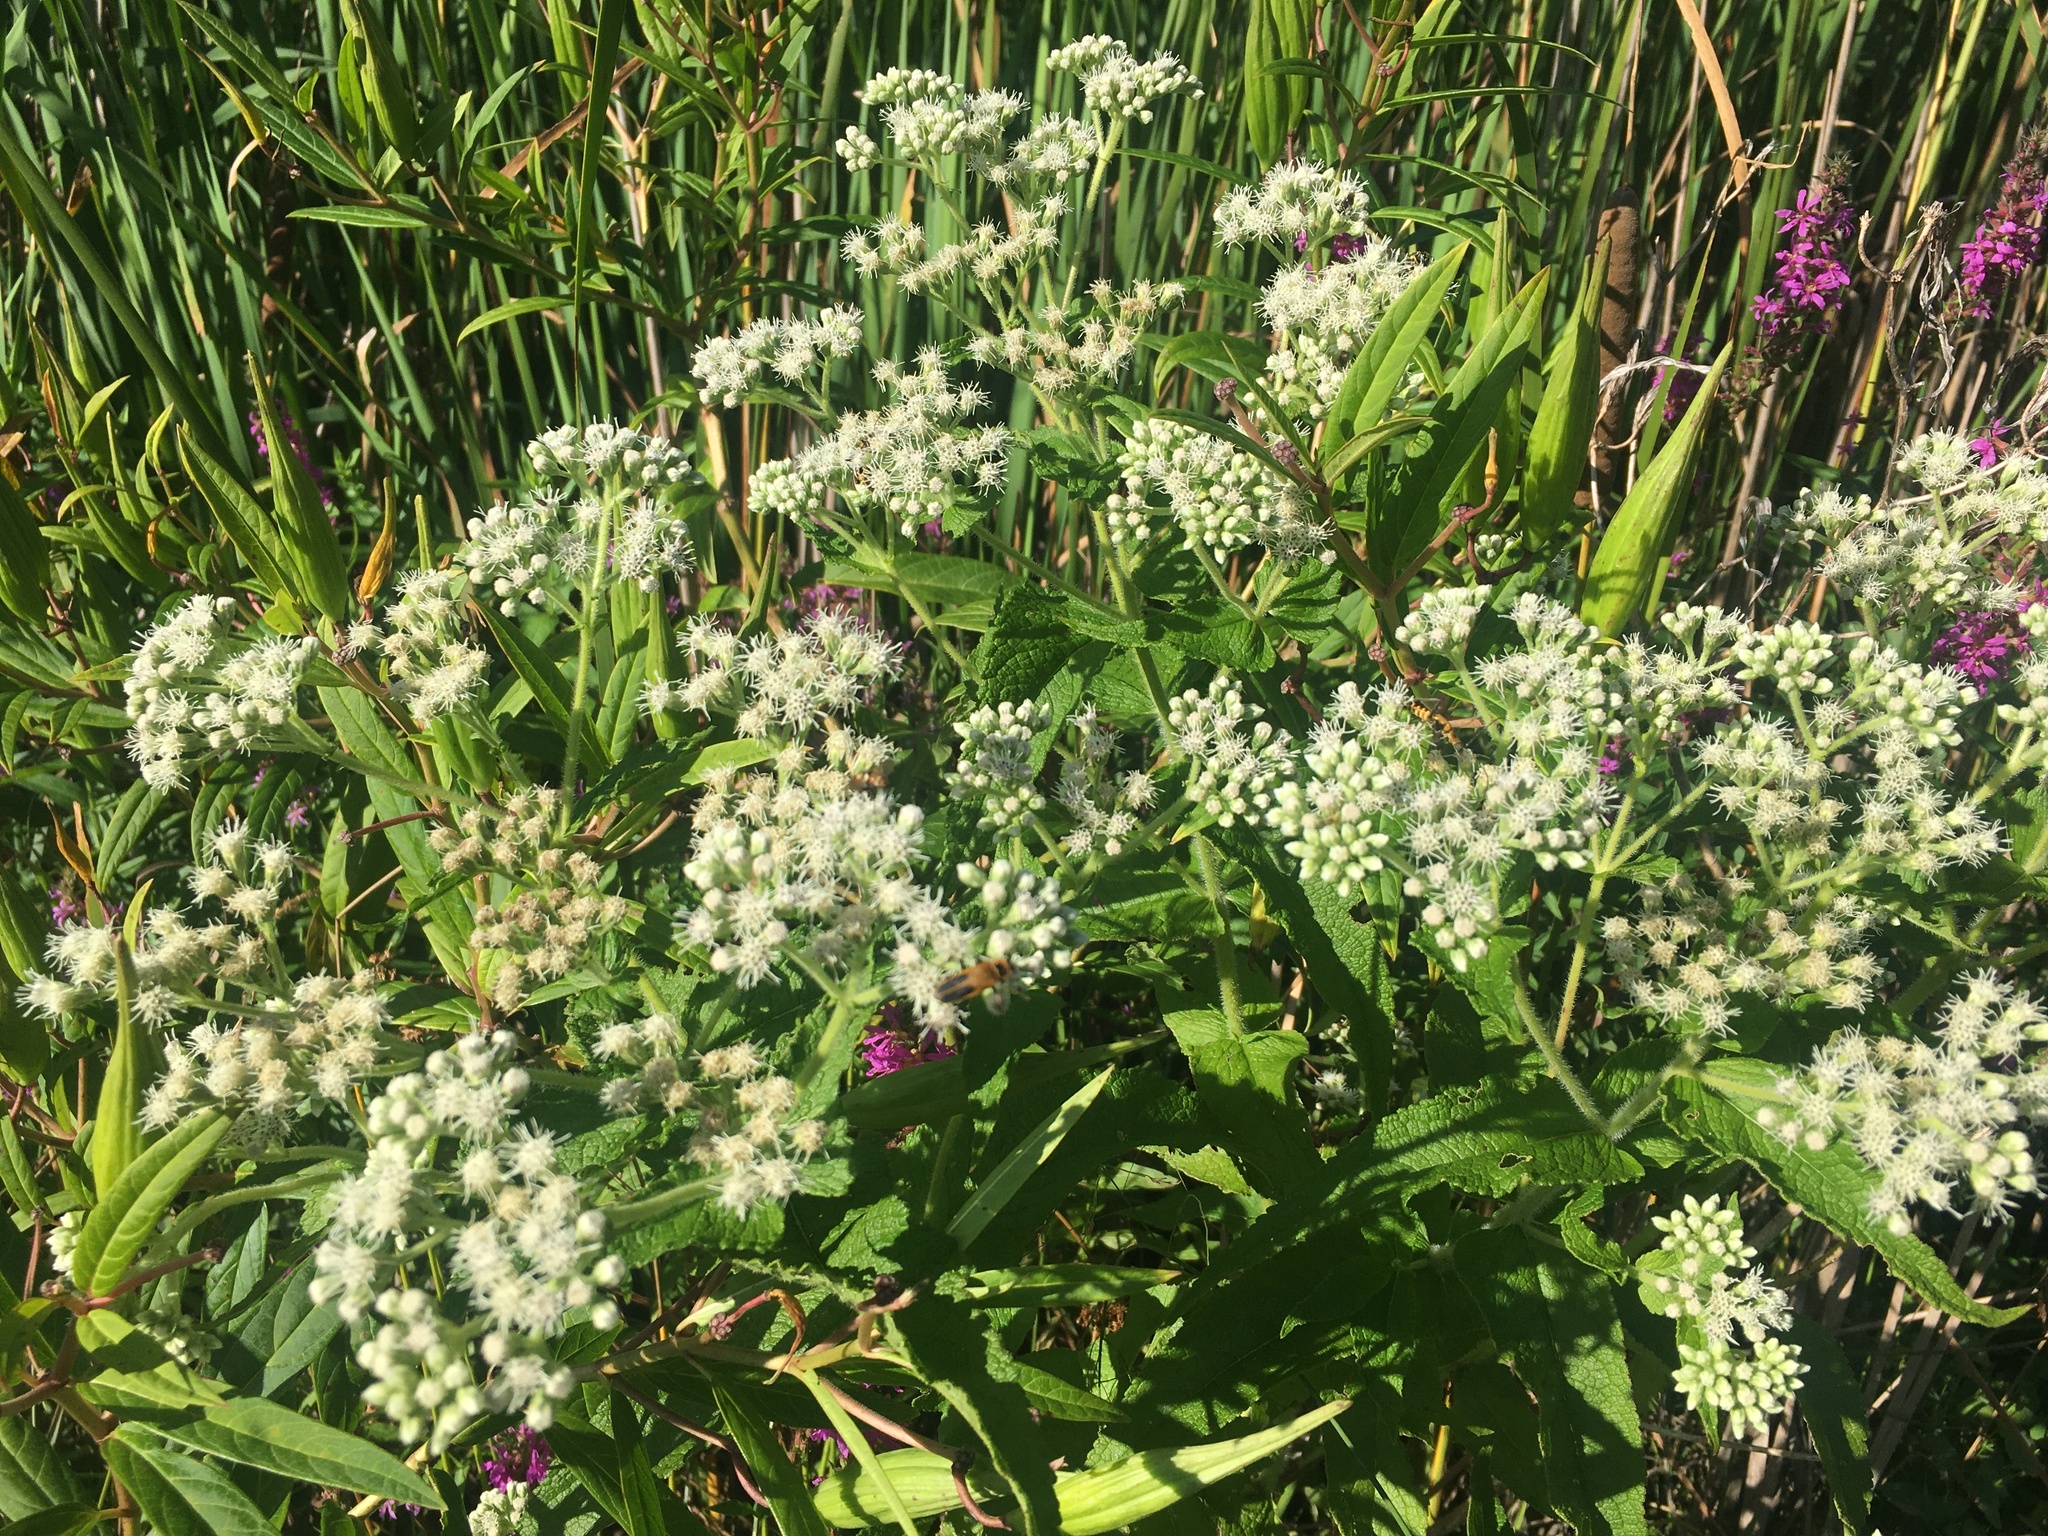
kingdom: Plantae
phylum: Tracheophyta
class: Magnoliopsida
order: Asterales
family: Asteraceae
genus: Eupatorium
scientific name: Eupatorium perfoliatum
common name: Boneset
